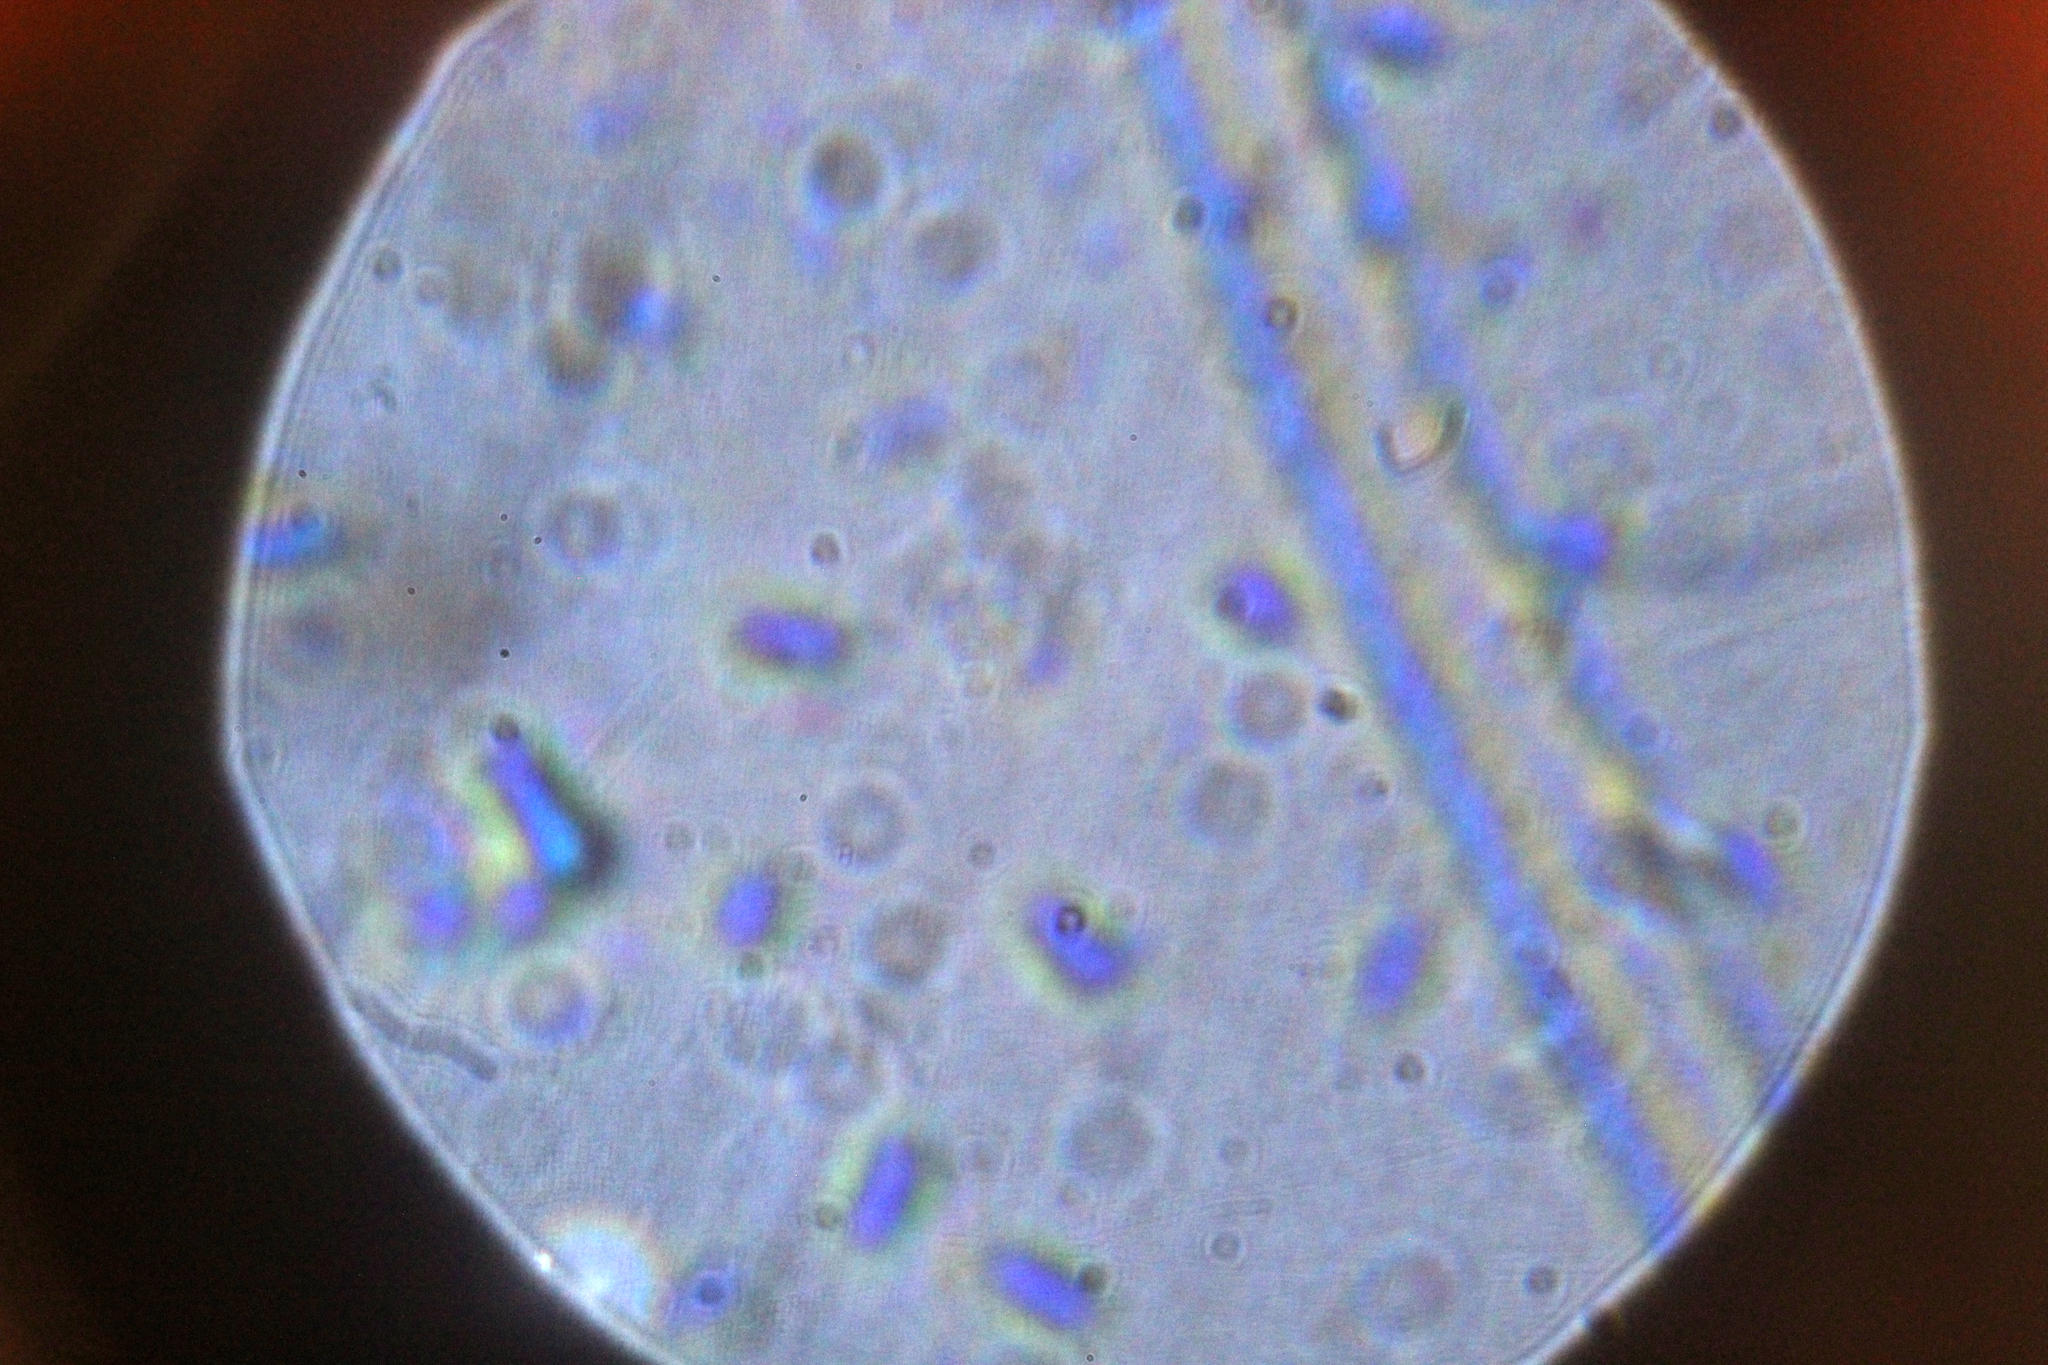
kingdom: Fungi
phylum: Basidiomycota
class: Agaricomycetes
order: Polyporales
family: Polyporaceae
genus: Trametes
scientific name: Trametes versicolor
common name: Turkeytail
